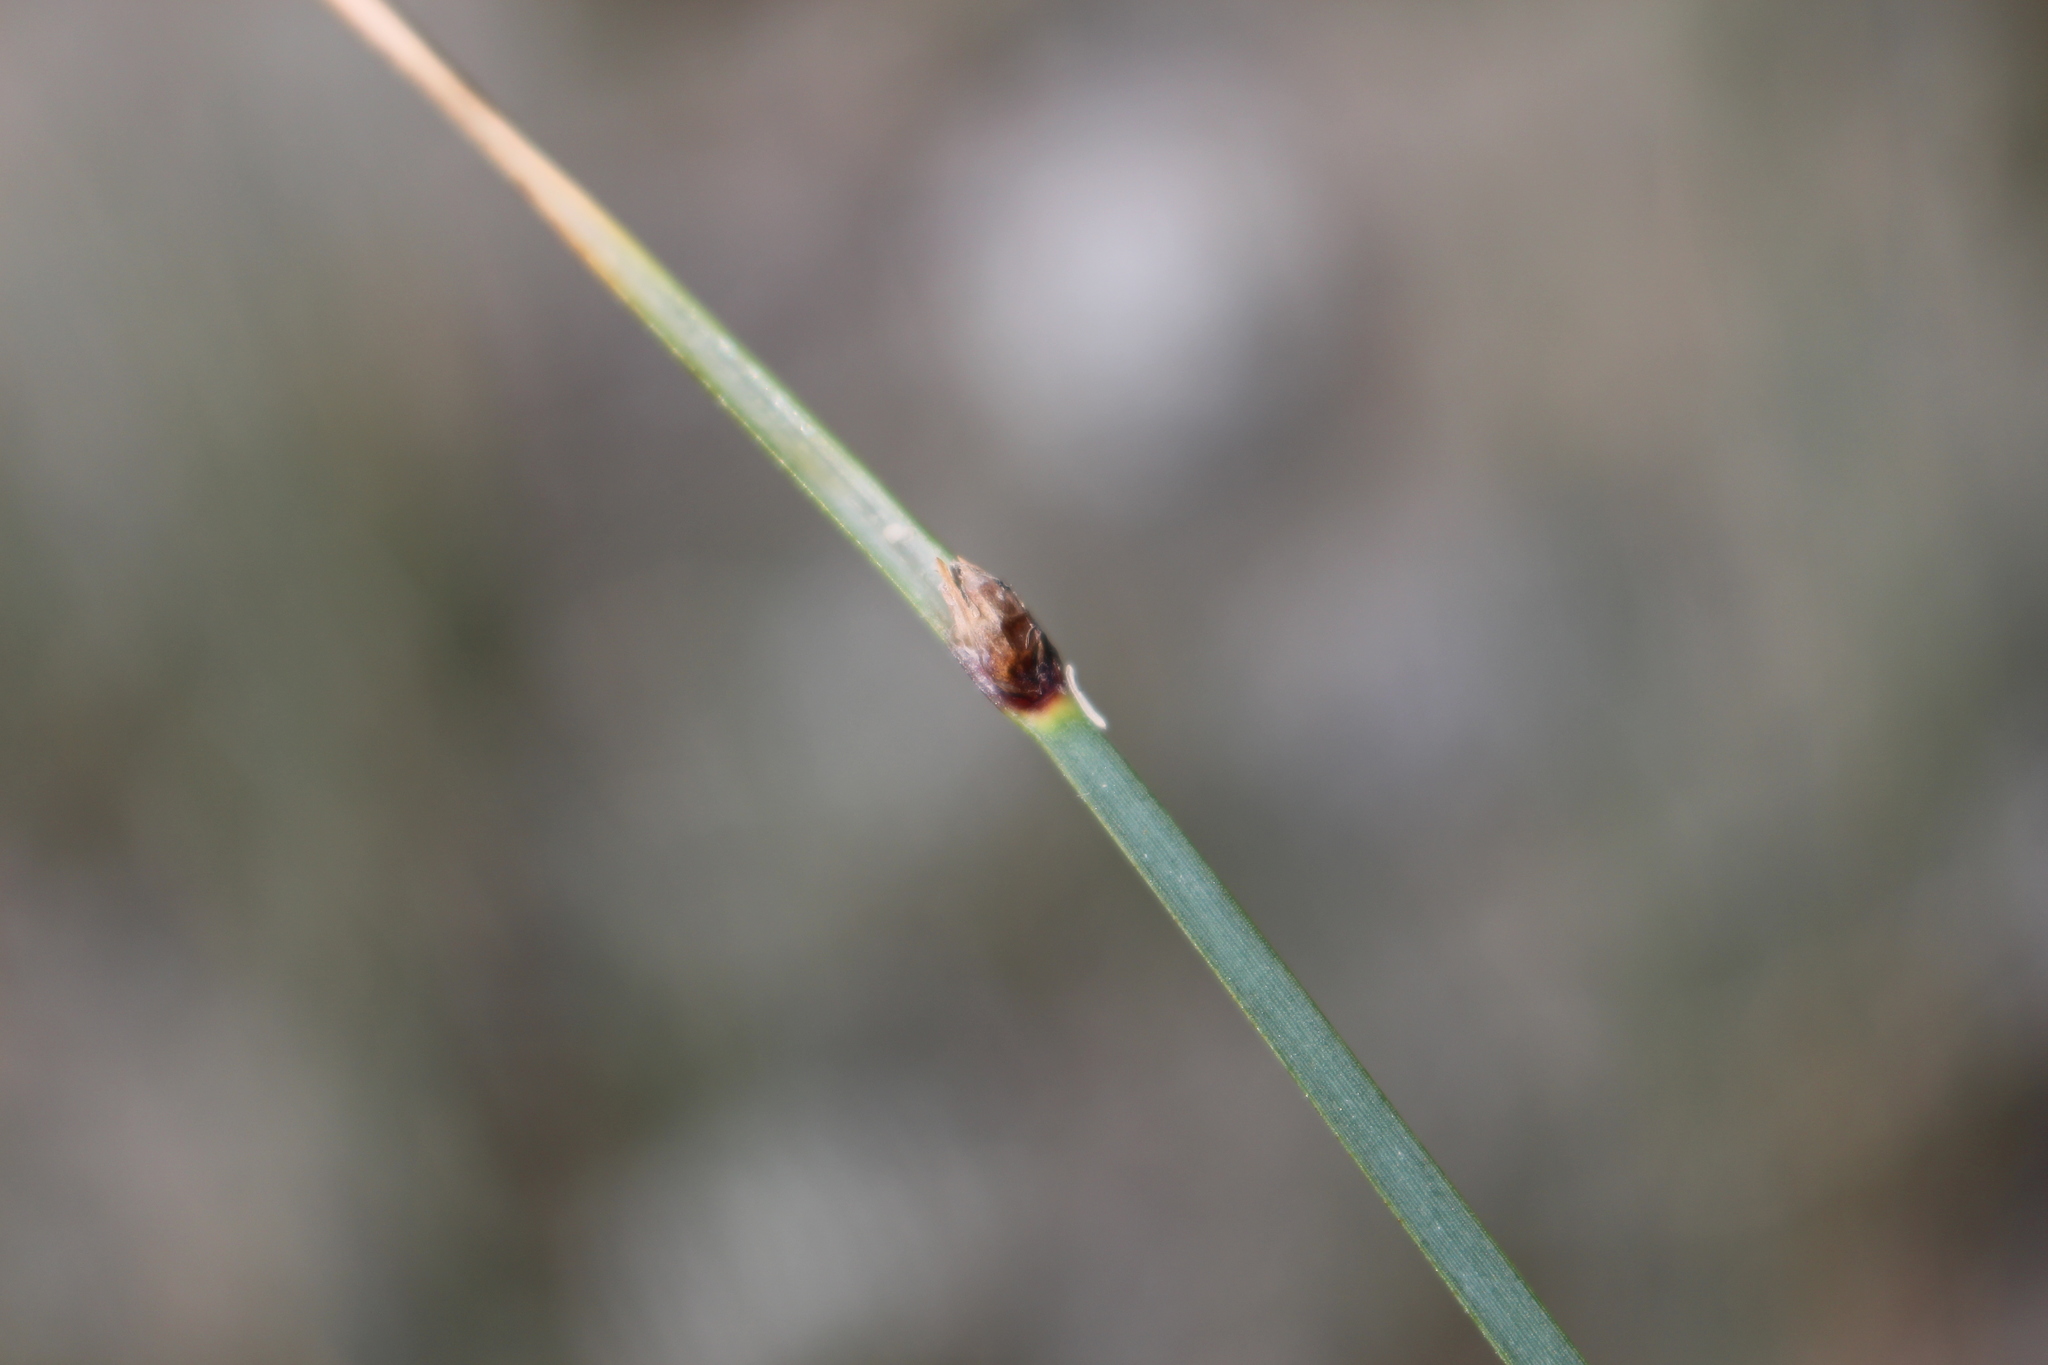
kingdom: Plantae
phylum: Tracheophyta
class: Liliopsida
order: Poales
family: Cyperaceae
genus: Schoenoplectus
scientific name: Schoenoplectus pungens
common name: Sharp club-rush
